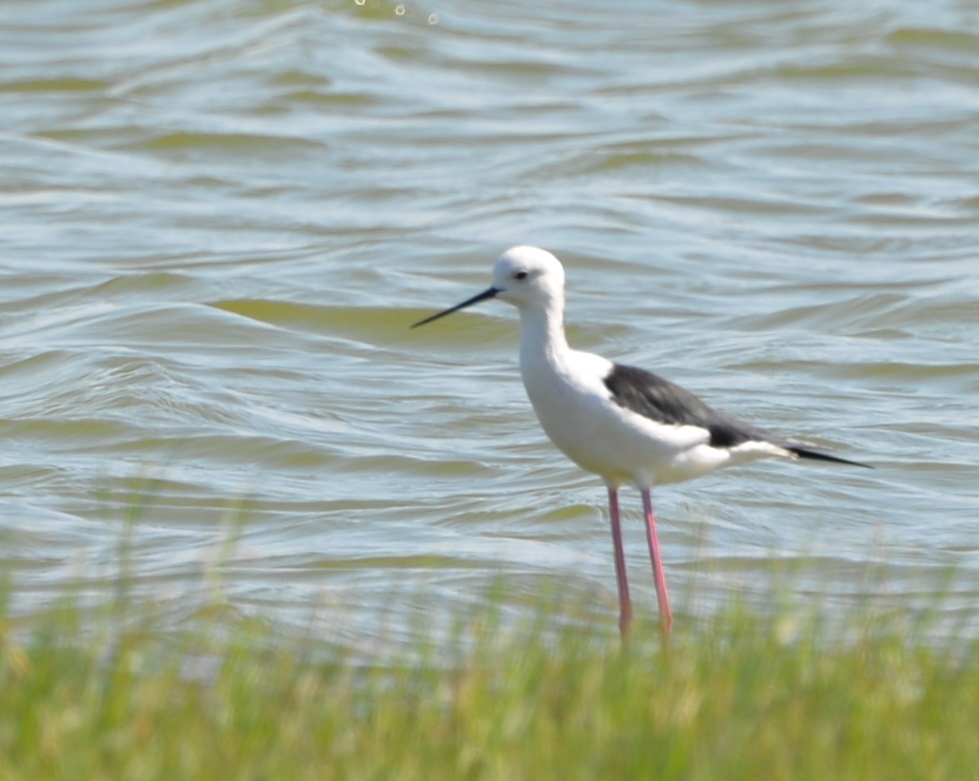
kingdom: Animalia
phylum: Chordata
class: Aves
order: Charadriiformes
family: Recurvirostridae
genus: Himantopus
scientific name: Himantopus himantopus
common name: Black-winged stilt
